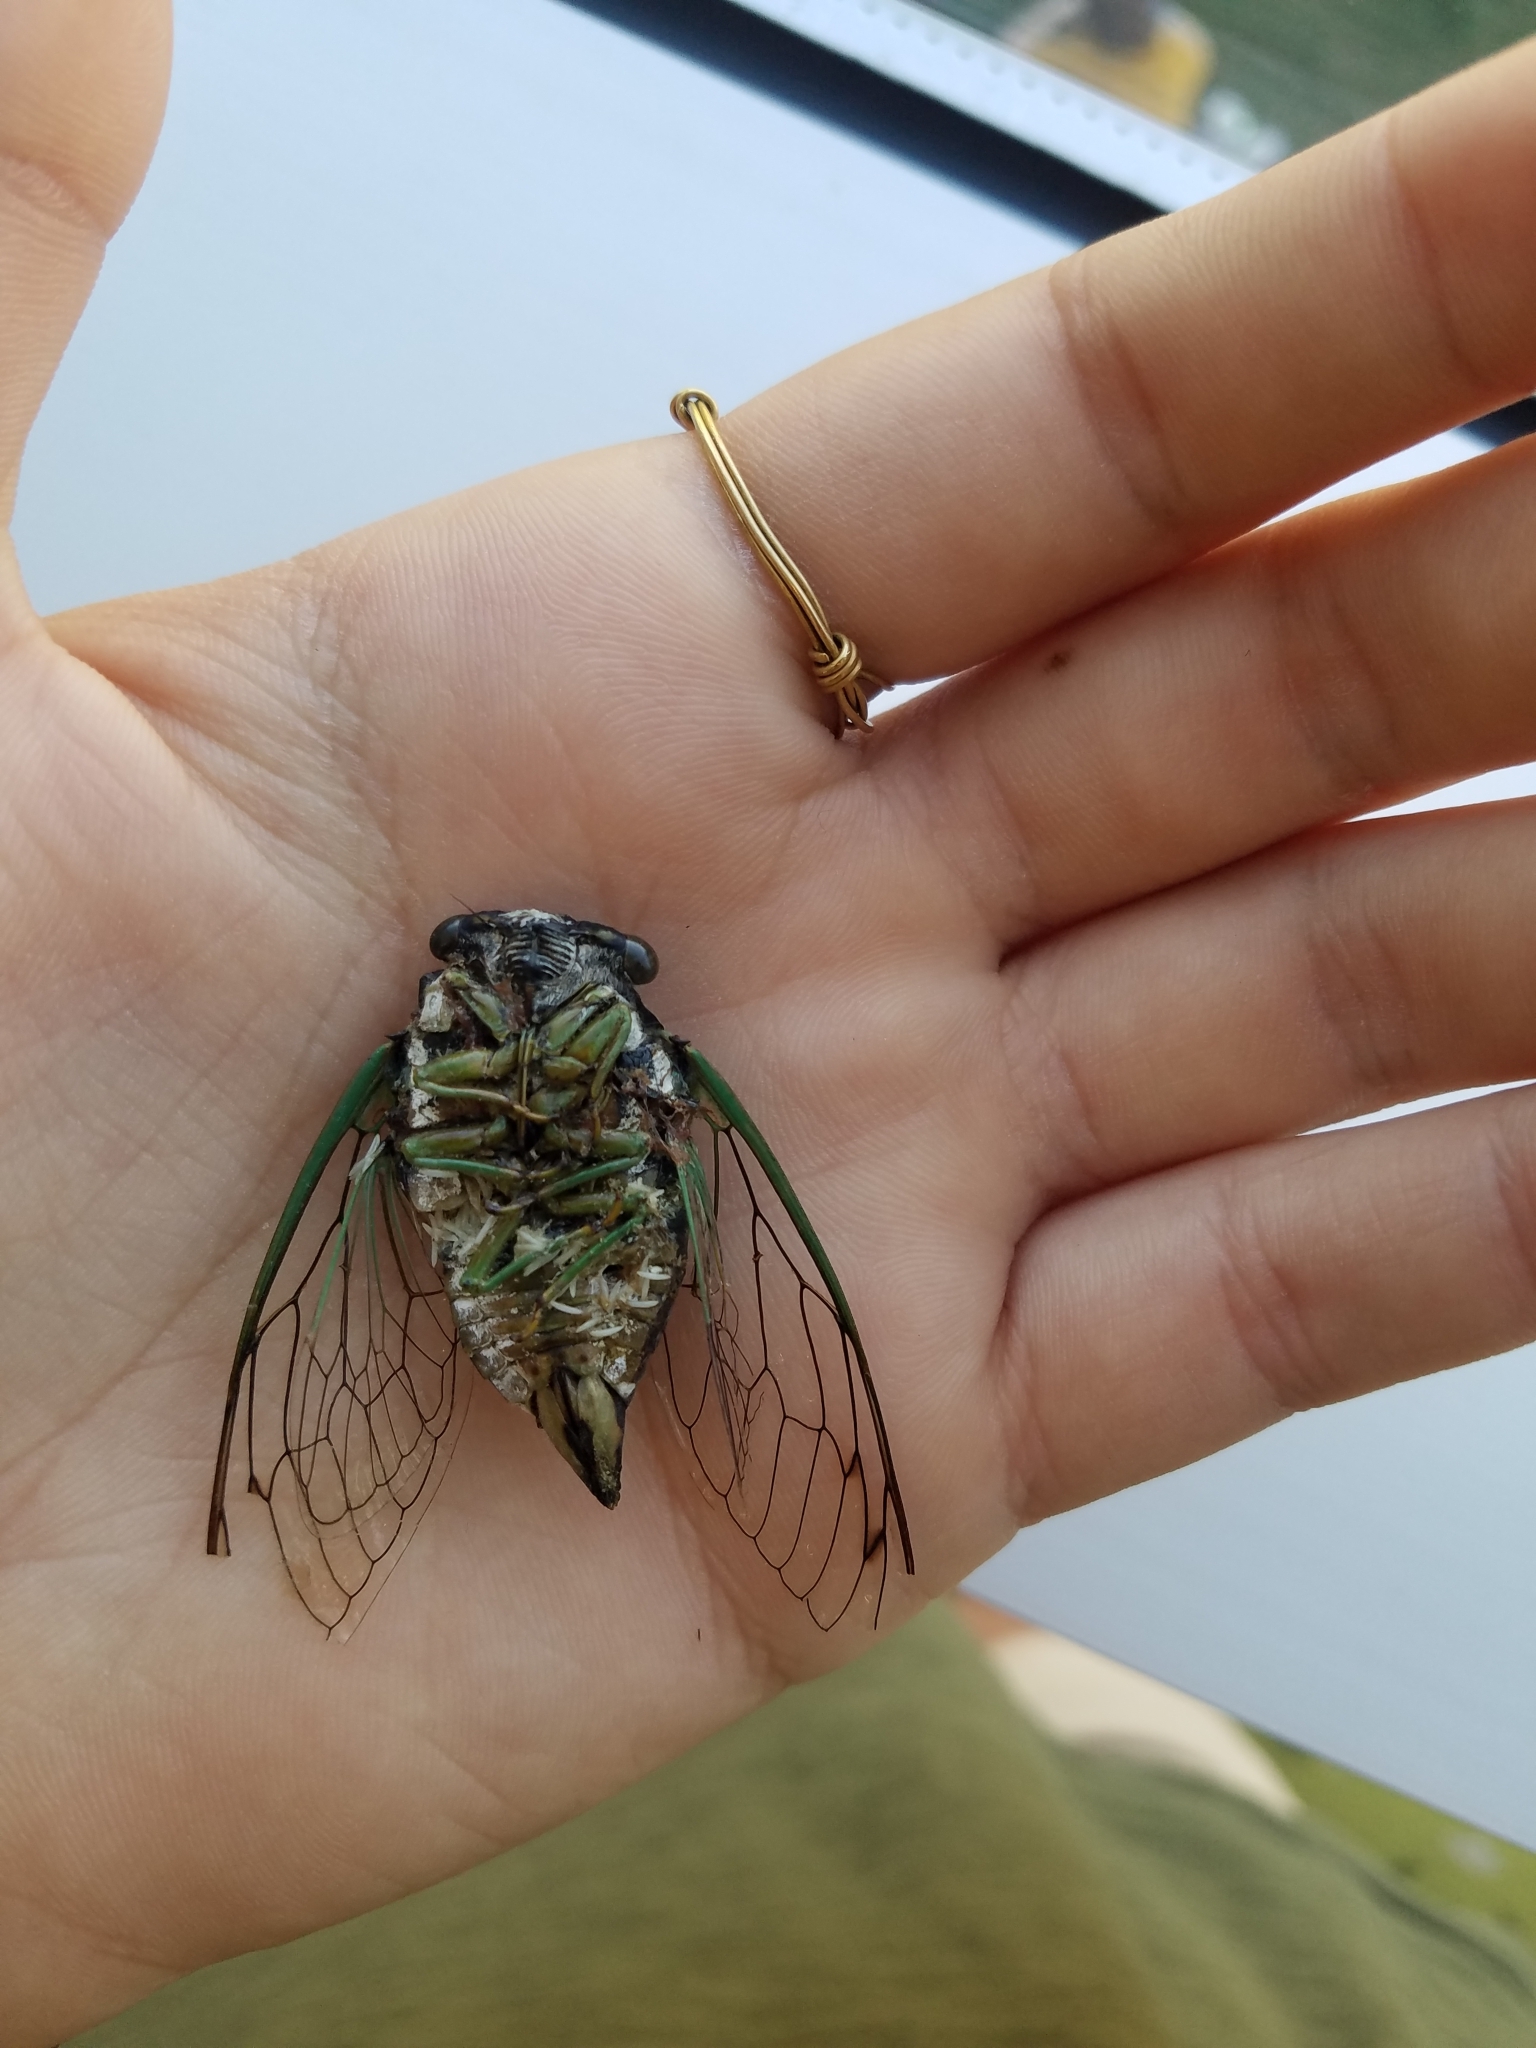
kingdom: Animalia
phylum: Arthropoda
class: Insecta
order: Hemiptera
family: Cicadidae
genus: Neotibicen
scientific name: Neotibicen tibicen
